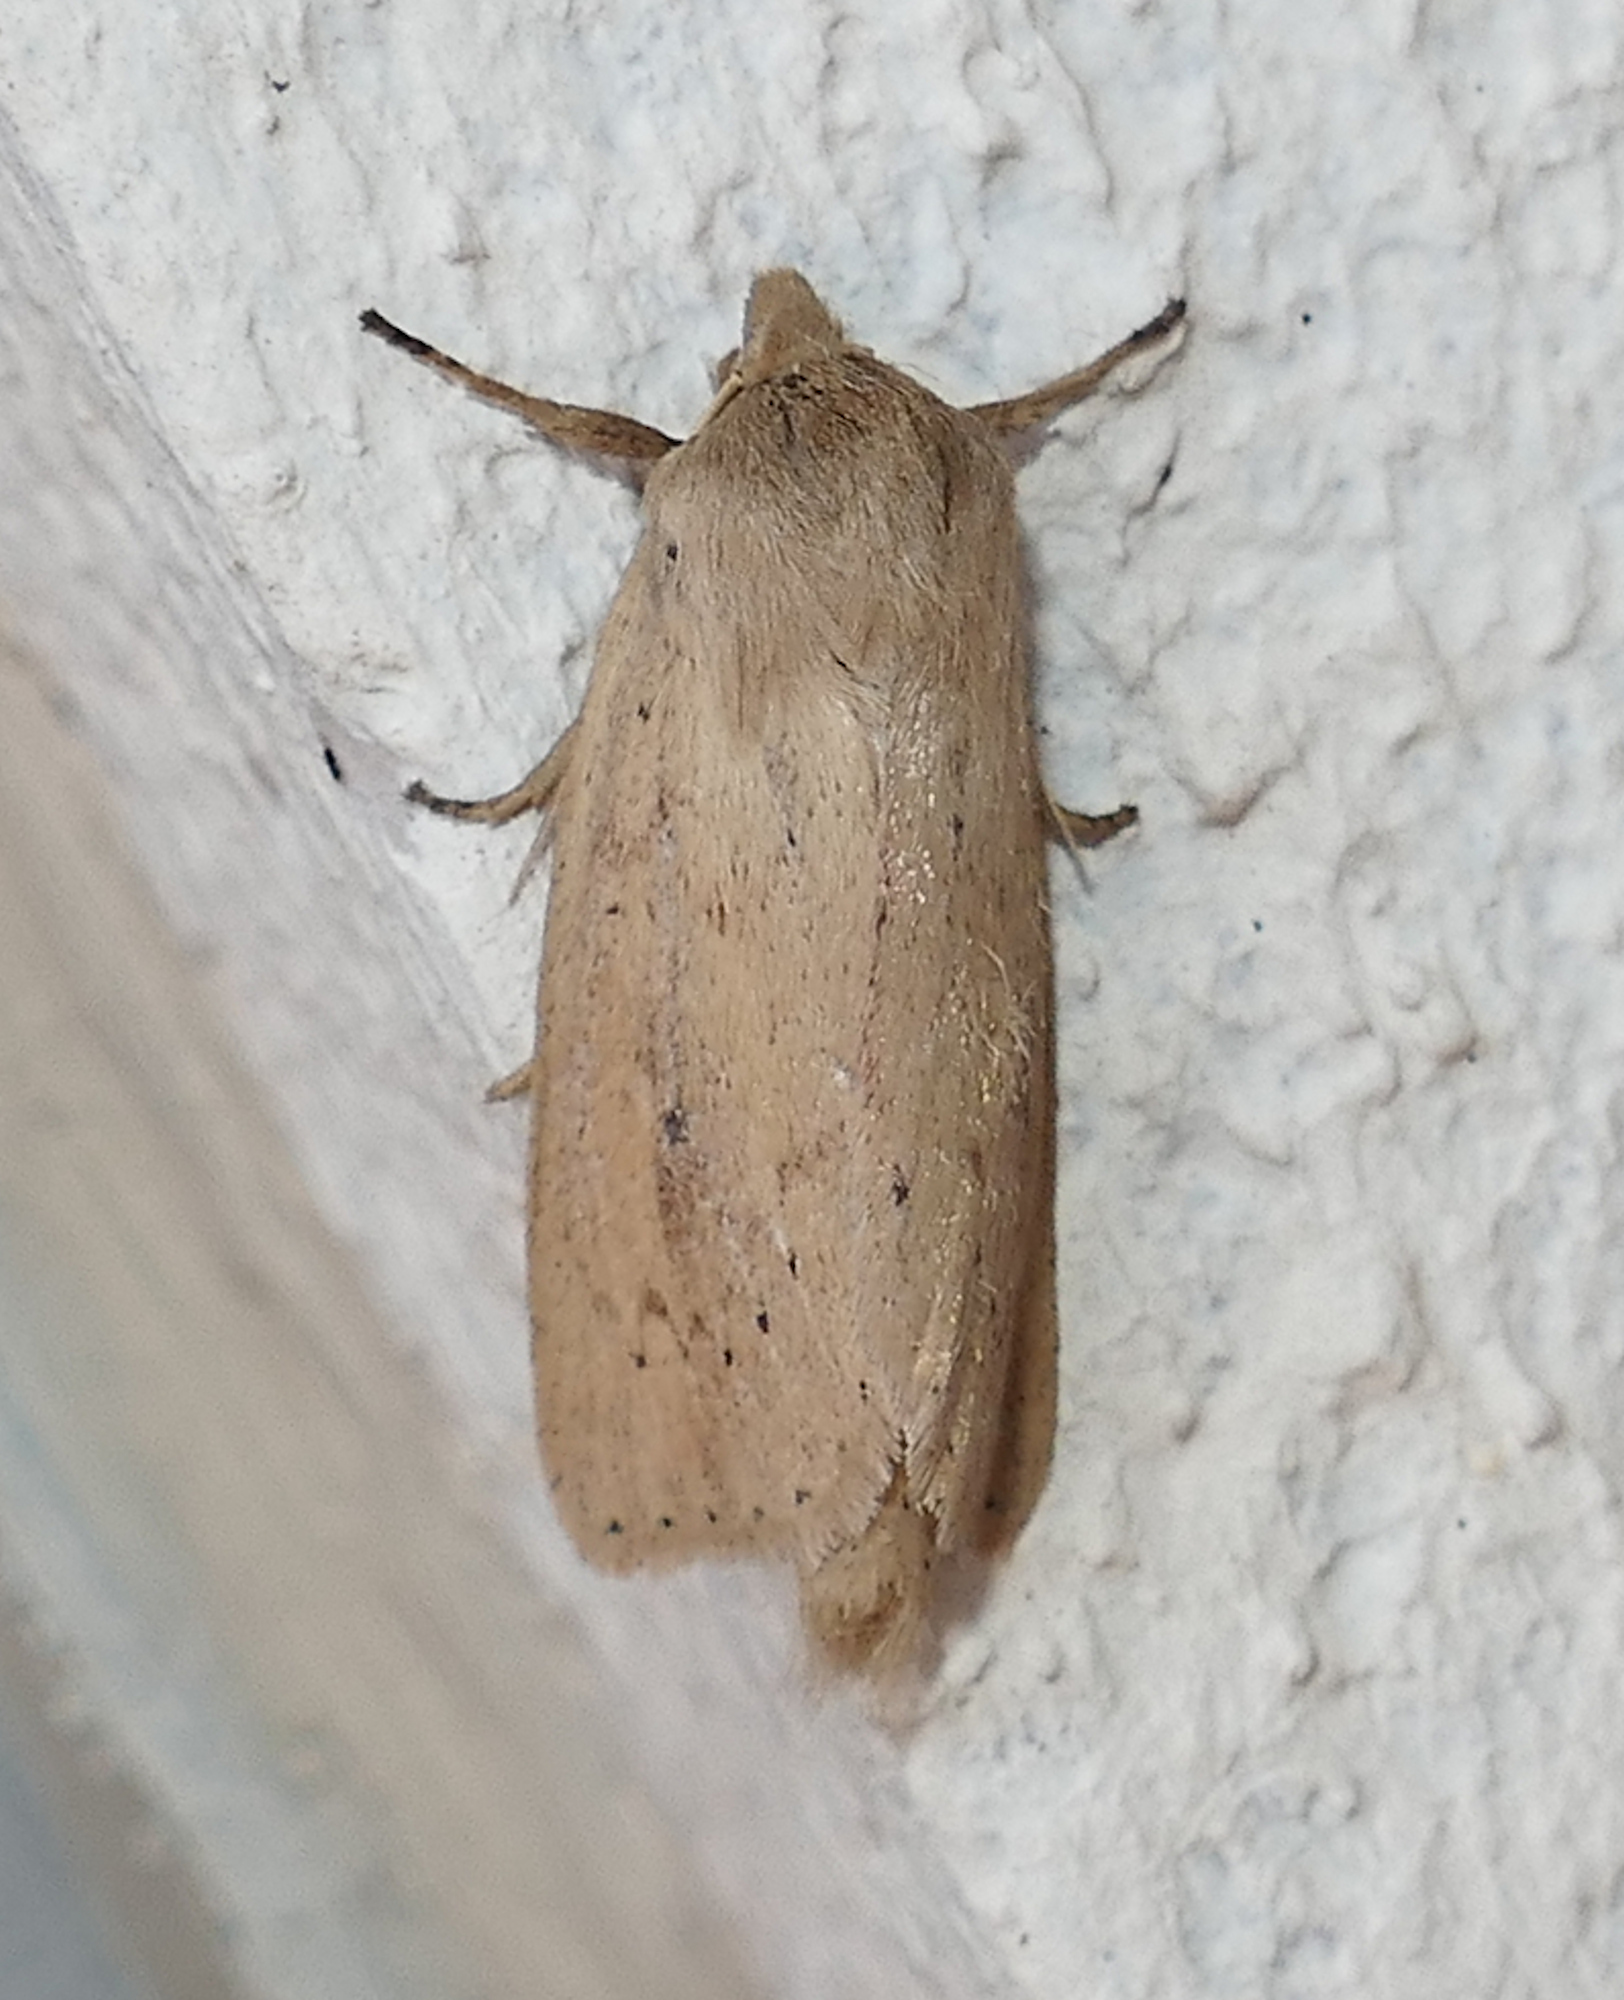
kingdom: Animalia
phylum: Arthropoda
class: Insecta
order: Lepidoptera
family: Noctuidae
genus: Globia
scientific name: Globia oblonga
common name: Oblong sedge borer moth
